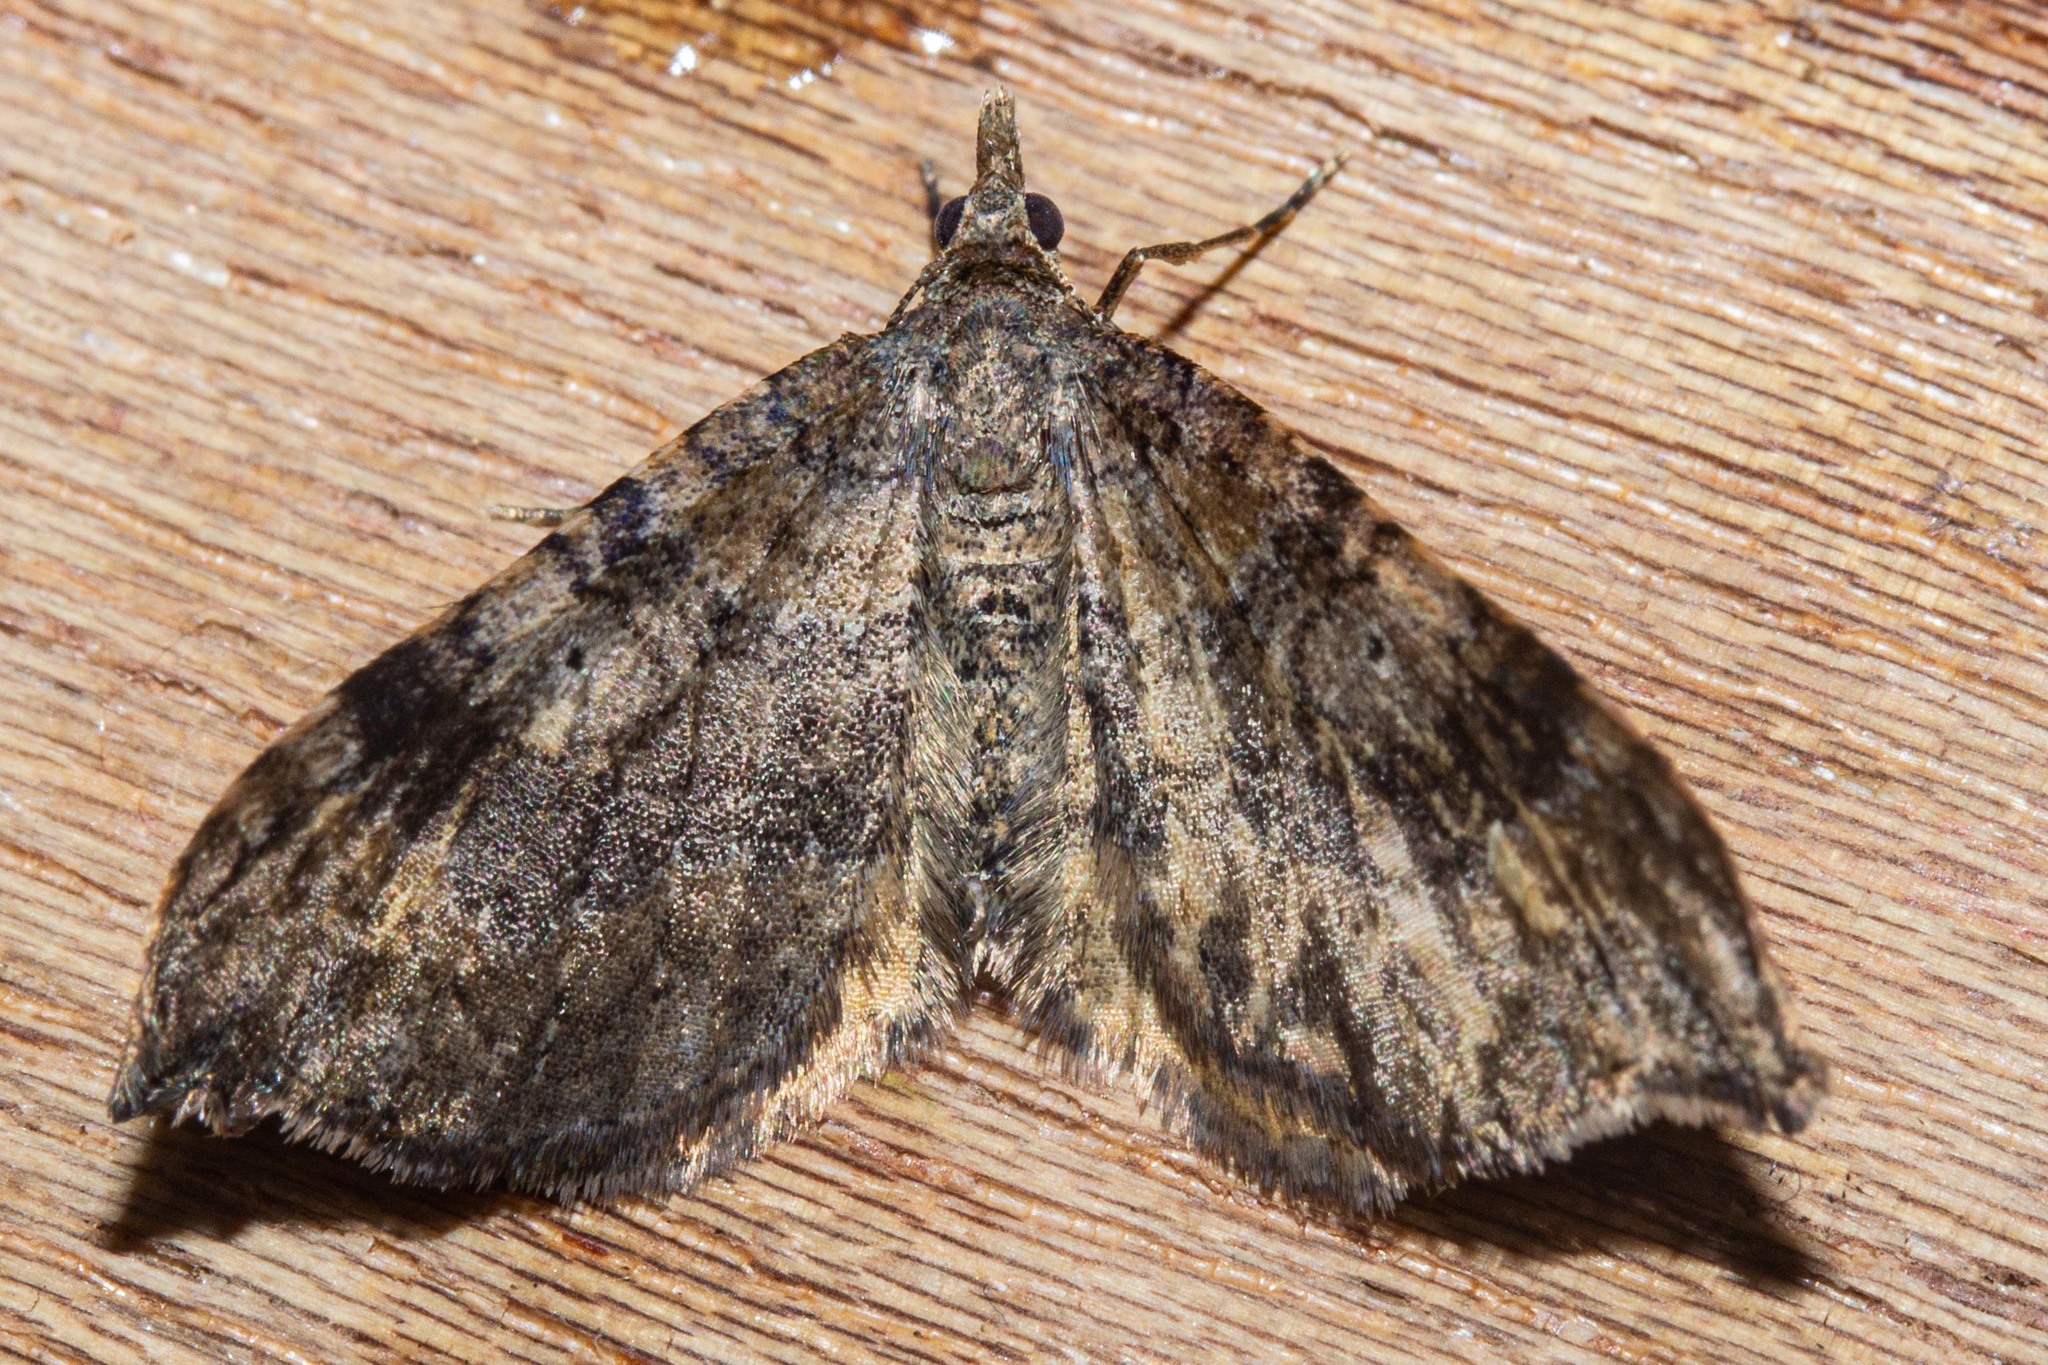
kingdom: Animalia
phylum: Arthropoda
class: Insecta
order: Lepidoptera
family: Geometridae
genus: Homodotis
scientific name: Homodotis megaspilata
